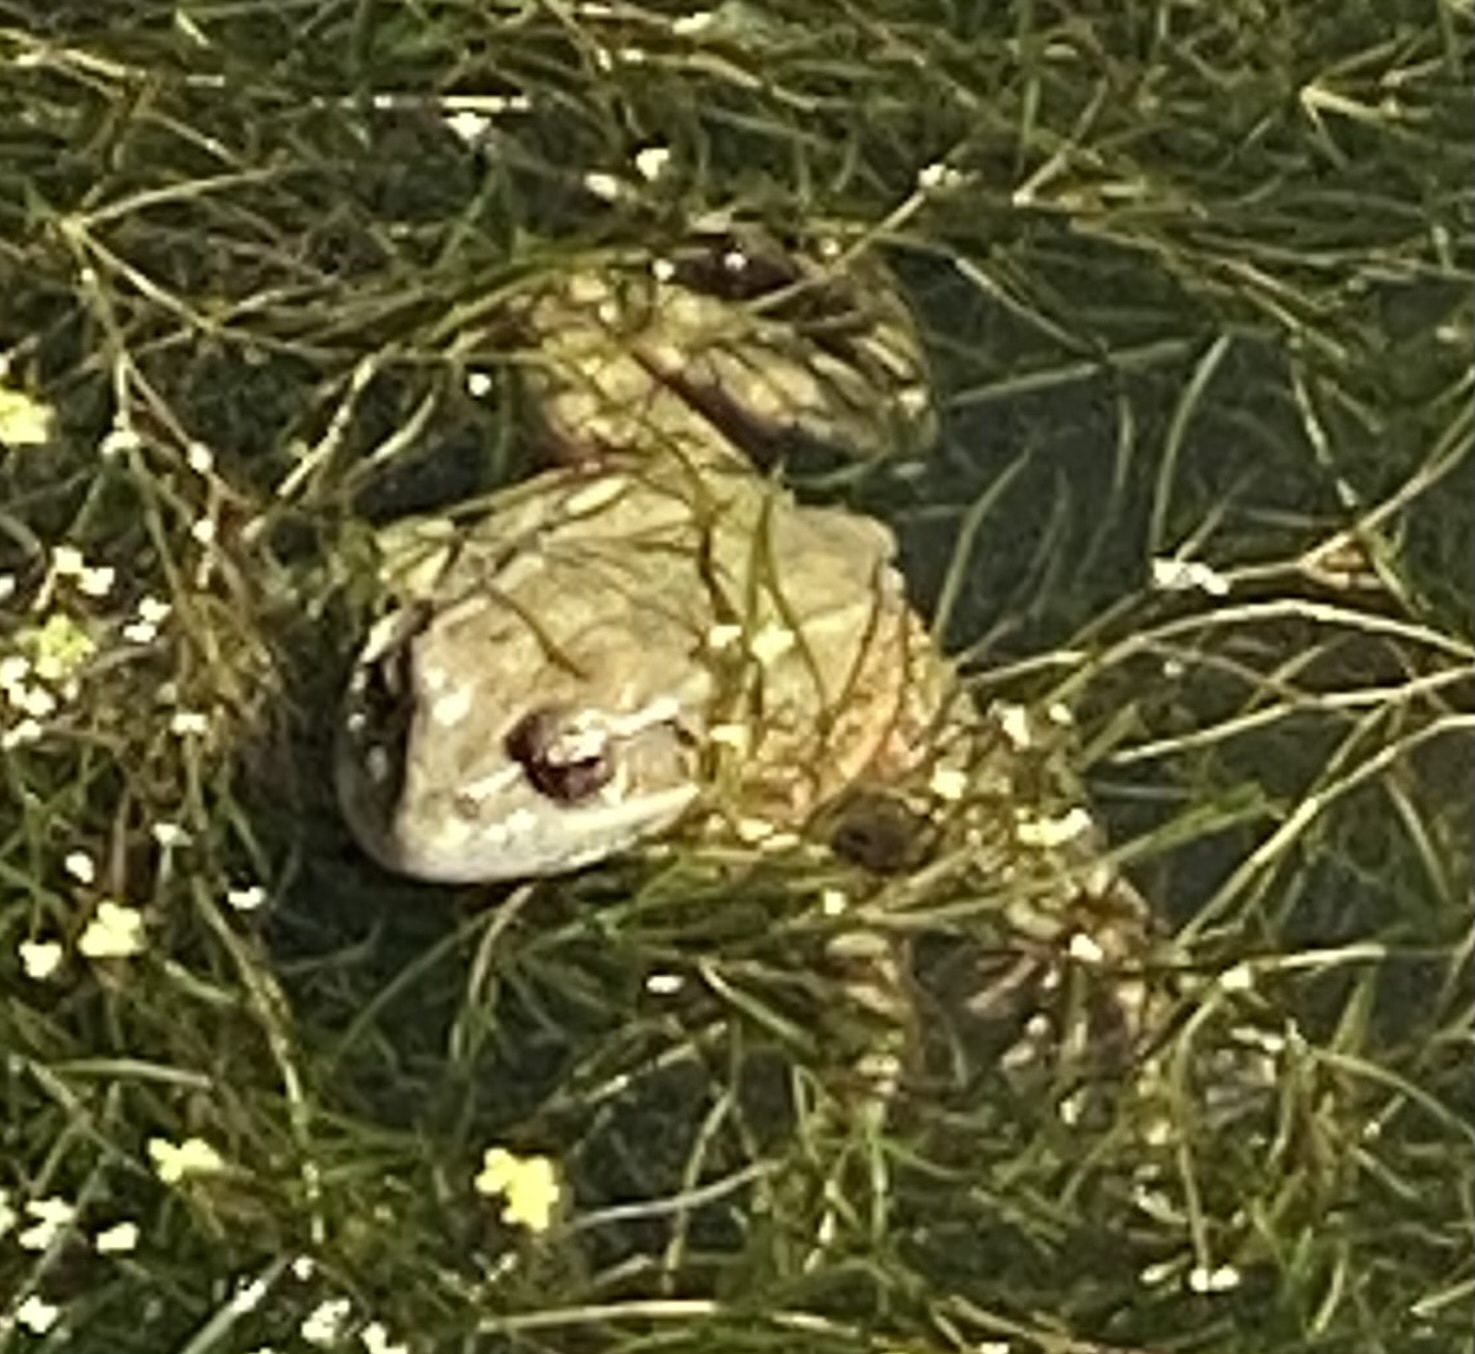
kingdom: Animalia
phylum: Chordata
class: Amphibia
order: Anura
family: Ranidae
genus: Rana
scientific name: Rana draytonii
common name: California red-legged frog
